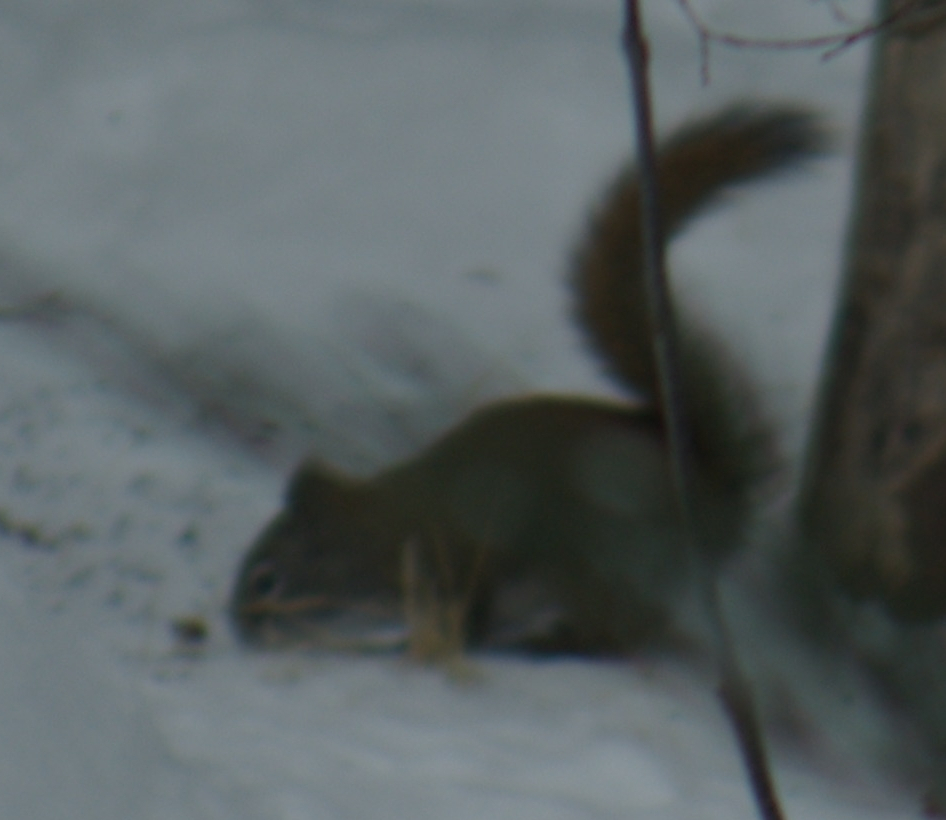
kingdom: Animalia
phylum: Chordata
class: Mammalia
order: Rodentia
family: Sciuridae
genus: Tamiasciurus
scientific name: Tamiasciurus hudsonicus
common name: Red squirrel
